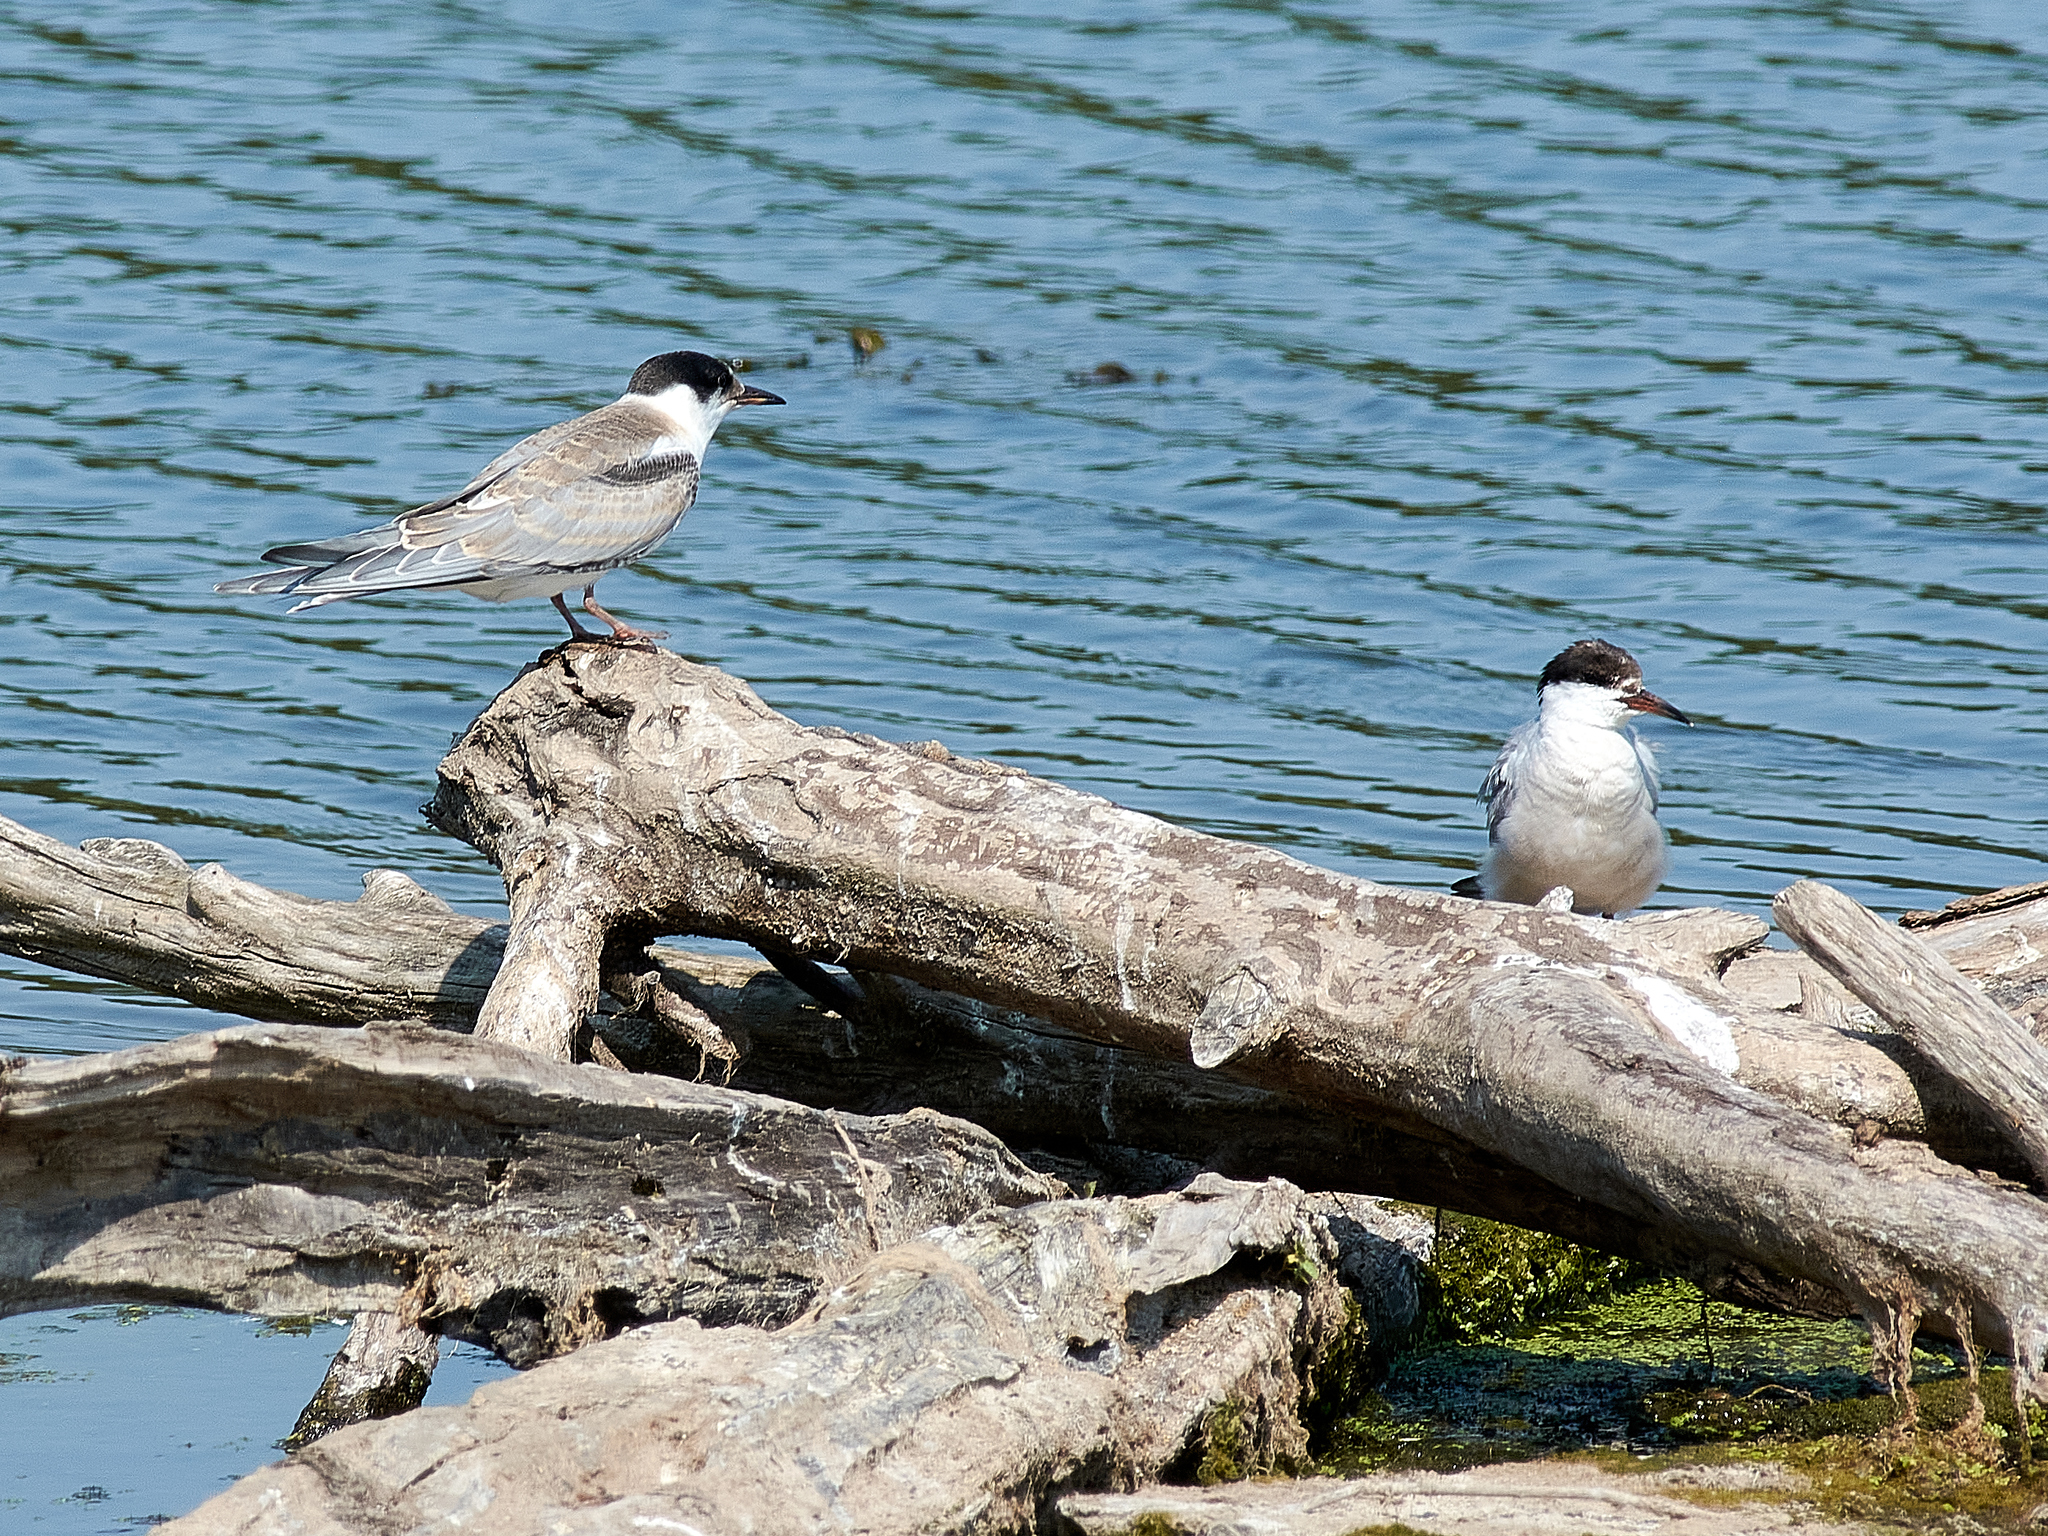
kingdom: Animalia
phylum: Chordata
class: Aves
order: Charadriiformes
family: Laridae
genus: Chlidonias
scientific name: Chlidonias niger
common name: Black tern
